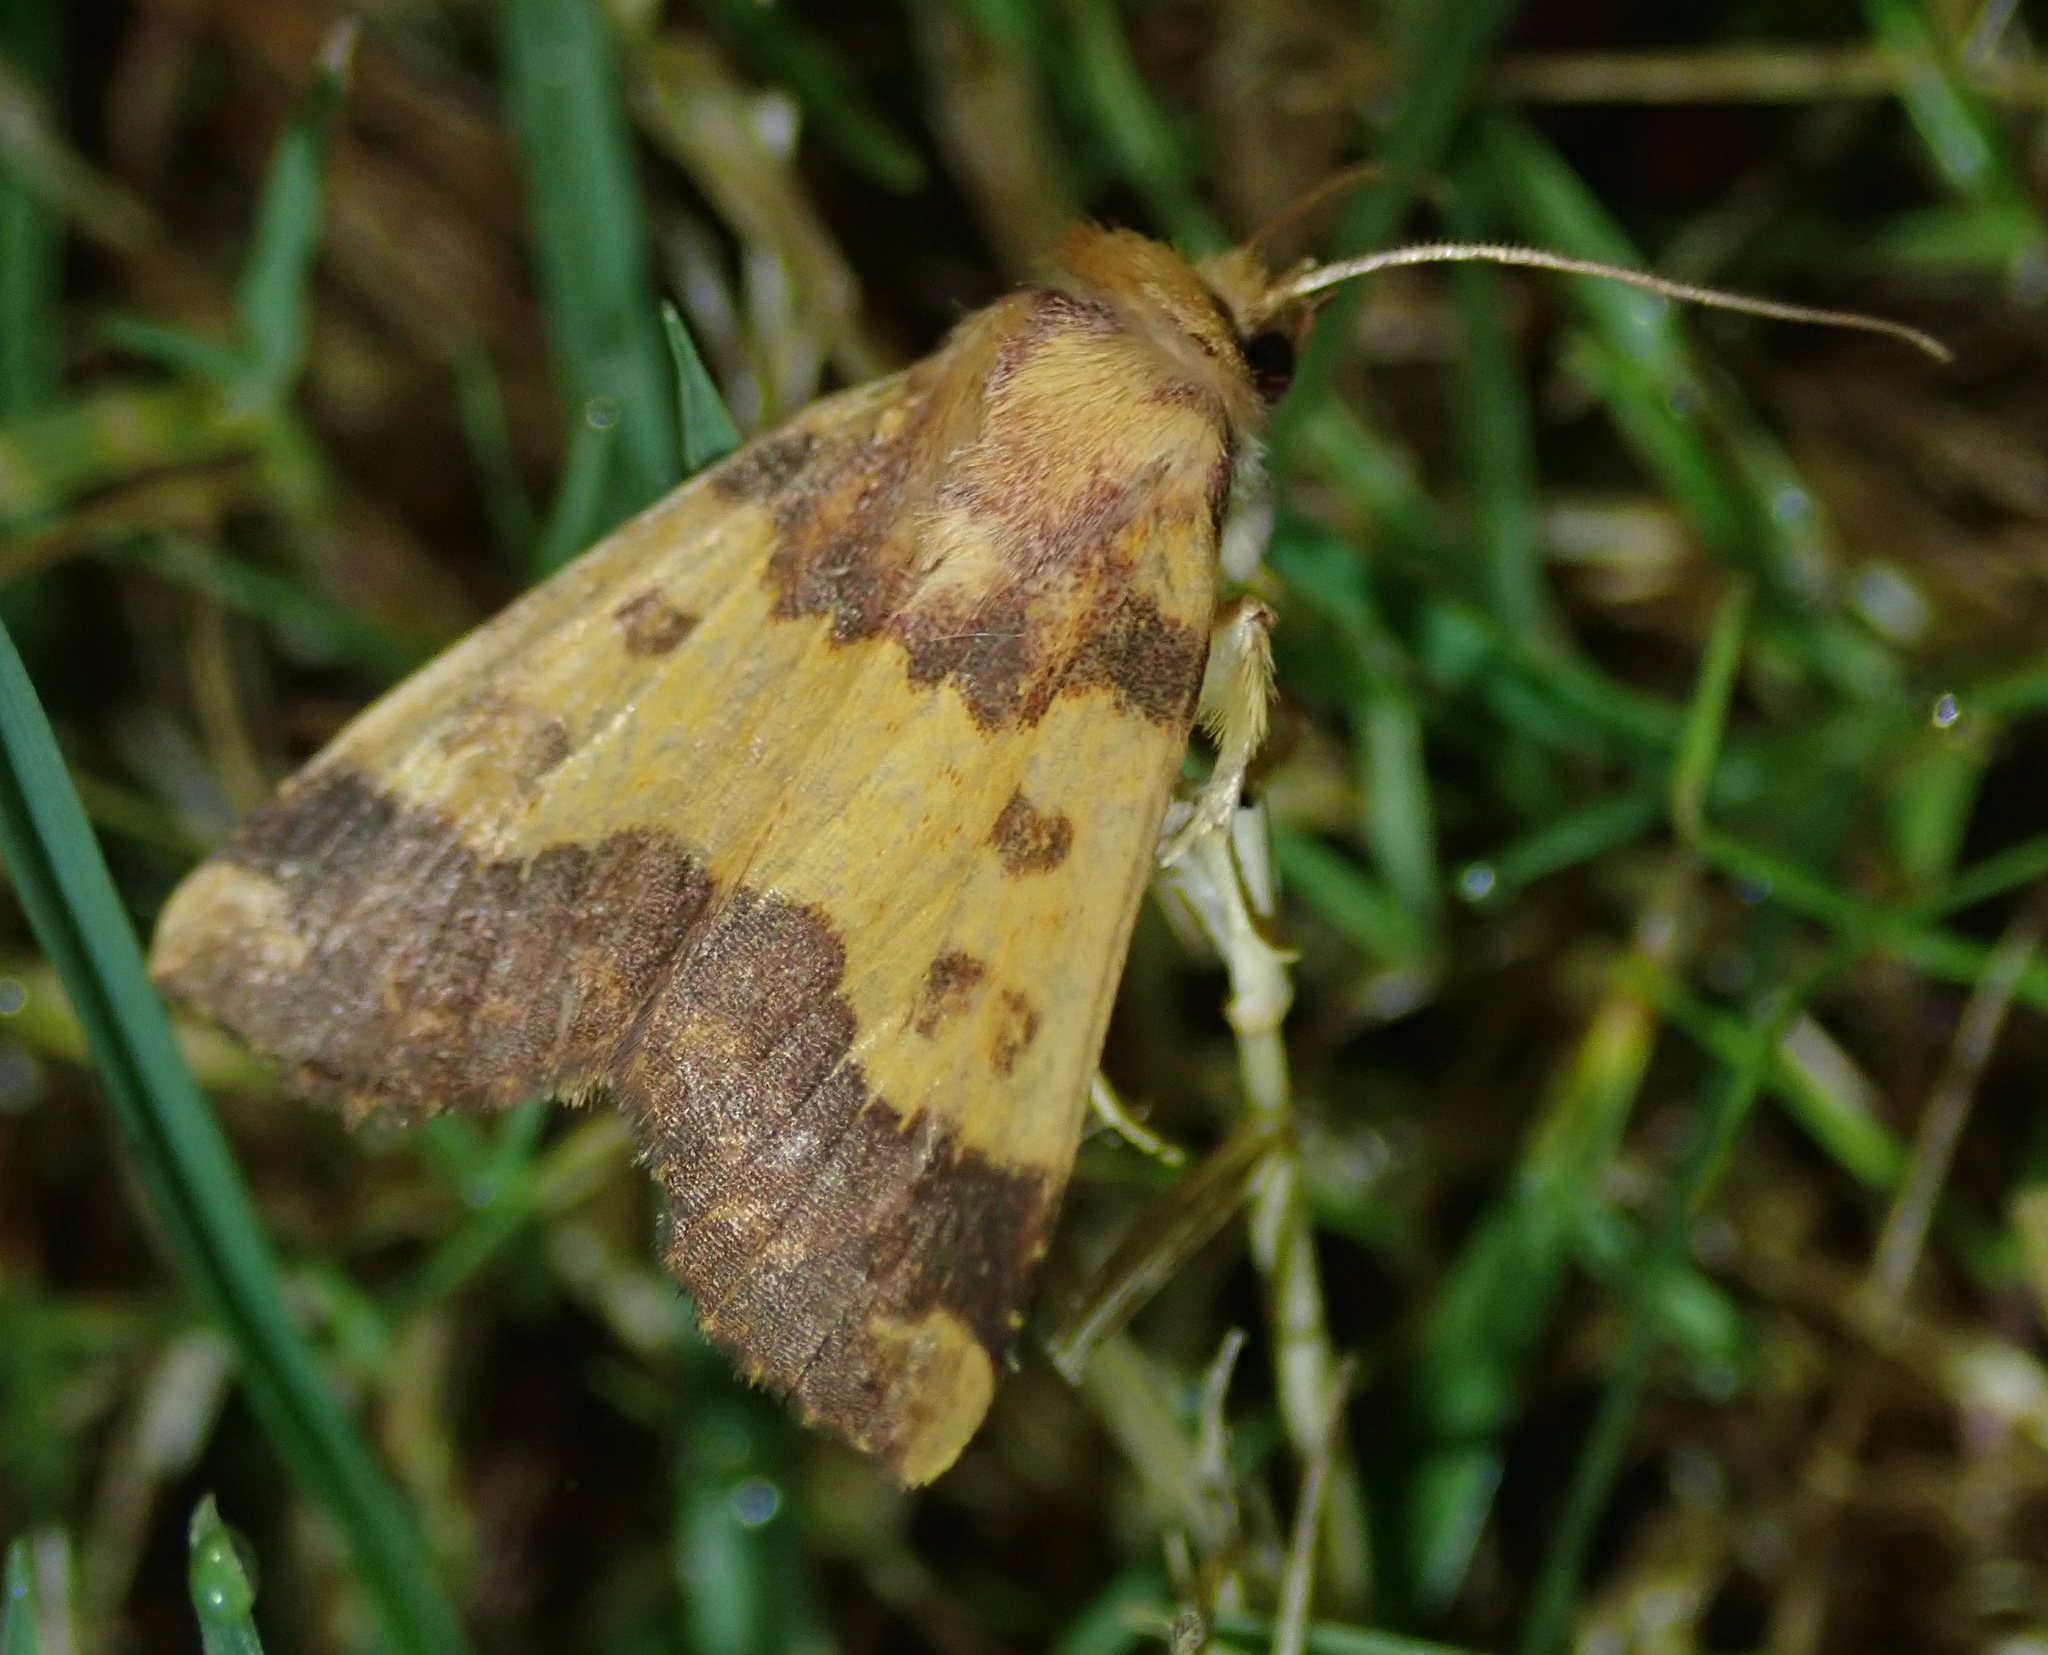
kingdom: Animalia
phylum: Arthropoda
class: Insecta
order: Lepidoptera
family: Noctuidae
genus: Tiliacea
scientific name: Tiliacea aurago
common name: Barred sallow
